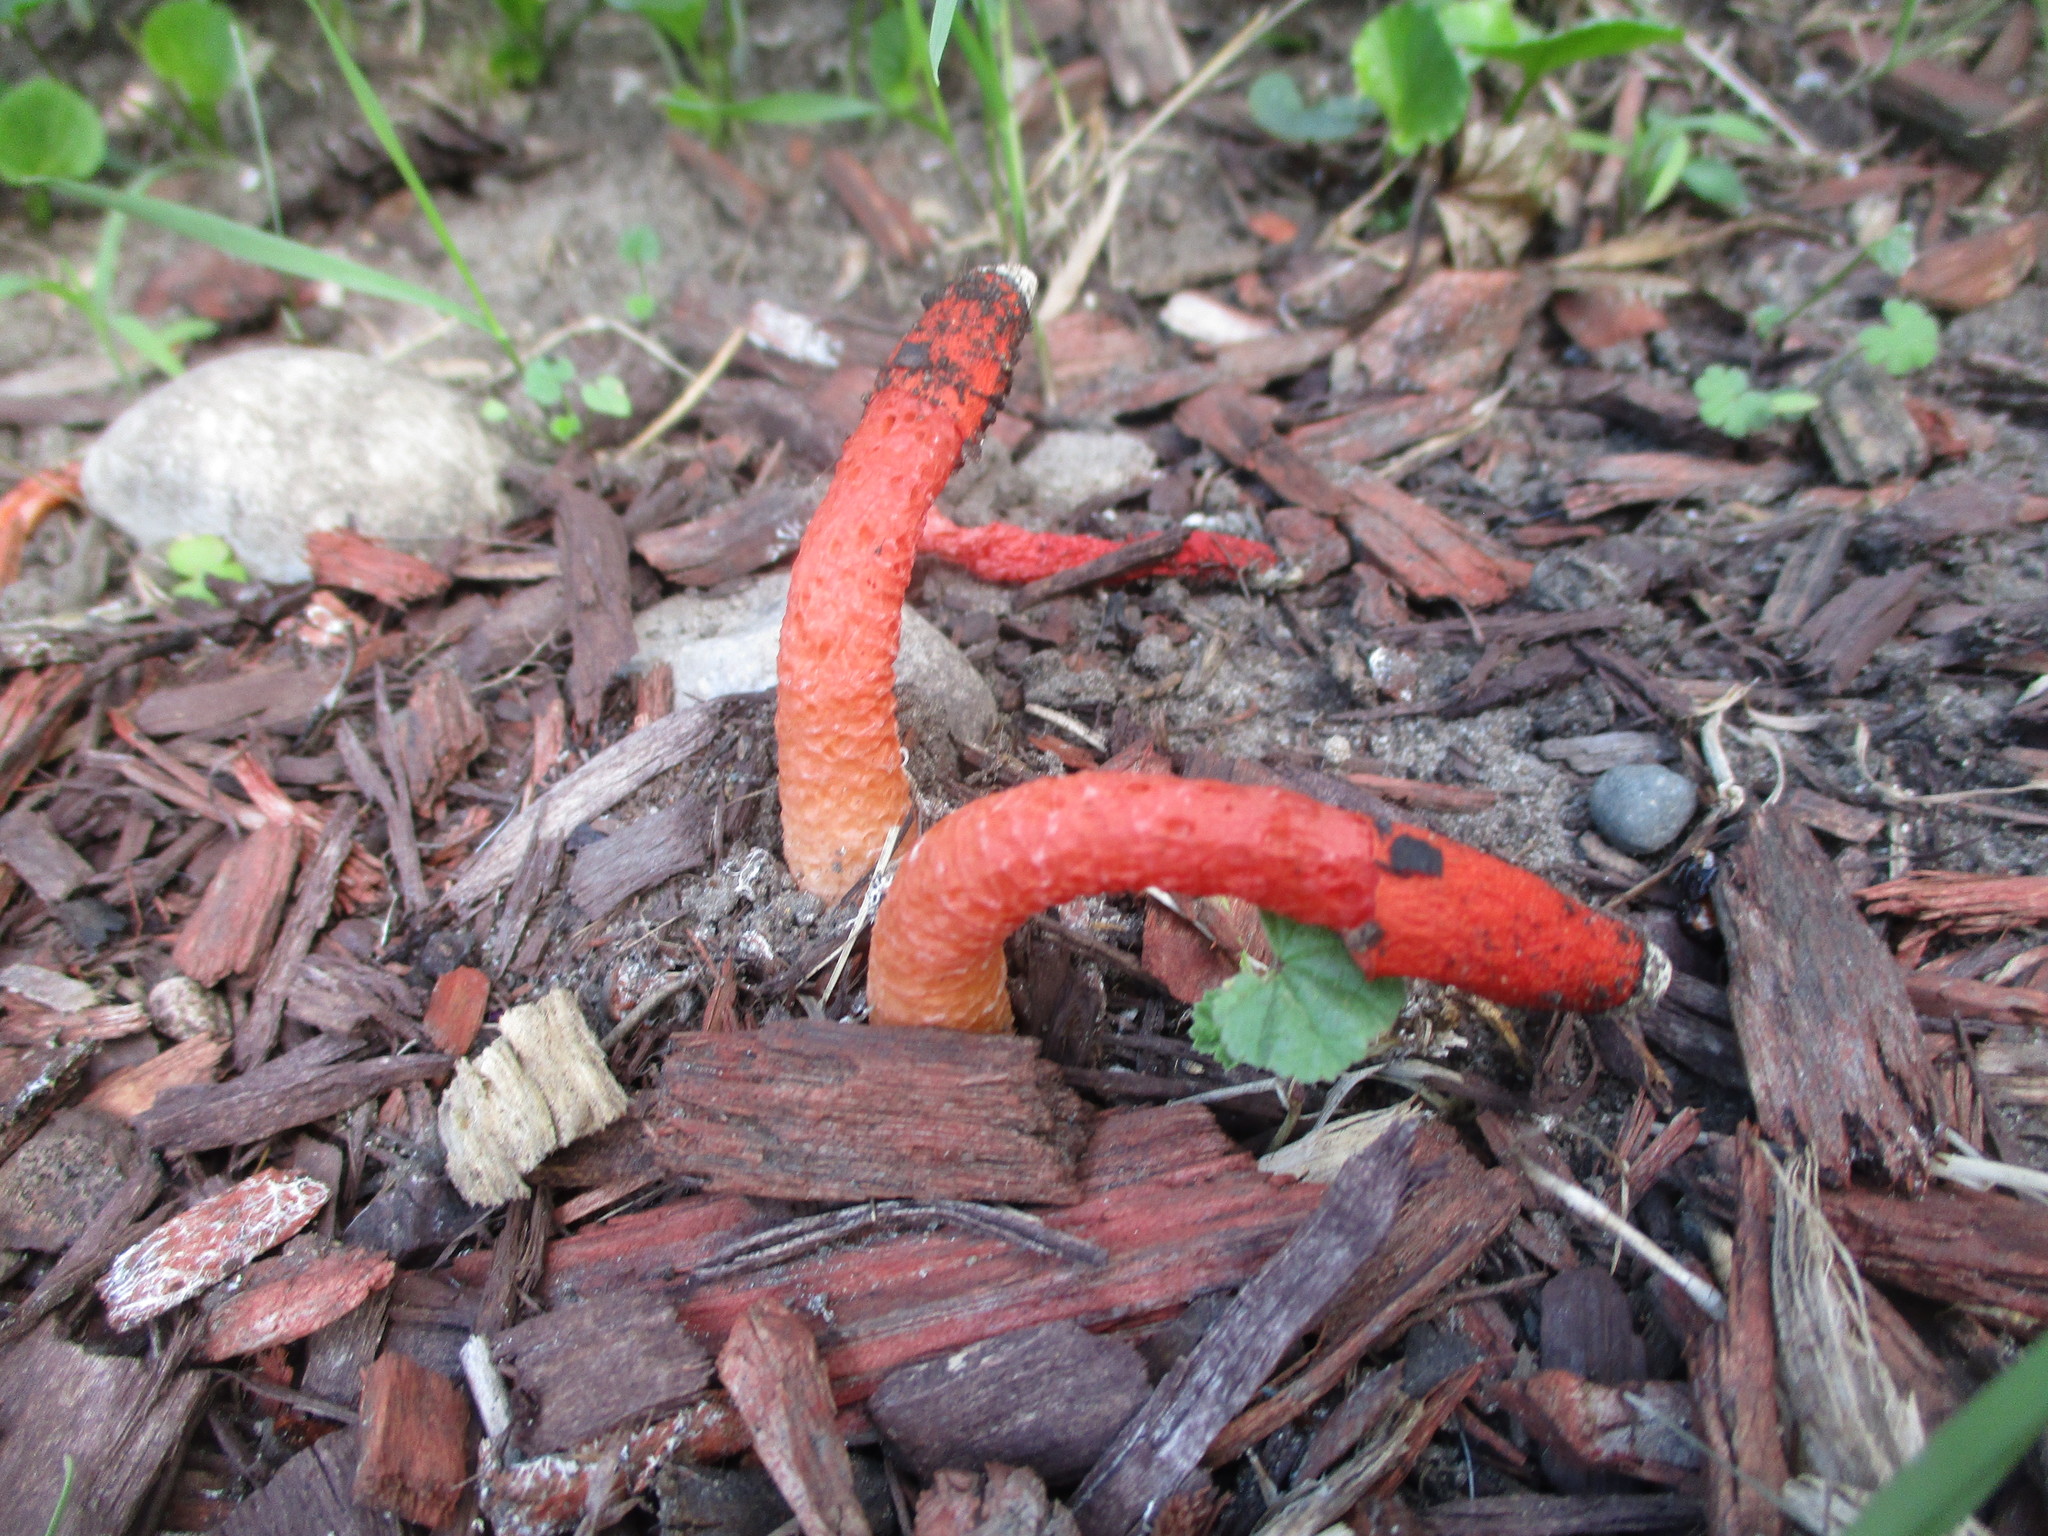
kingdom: Fungi
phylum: Basidiomycota
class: Agaricomycetes
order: Phallales
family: Phallaceae
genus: Phallus
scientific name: Phallus rugulosus
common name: Wrinkly stinkhorn
